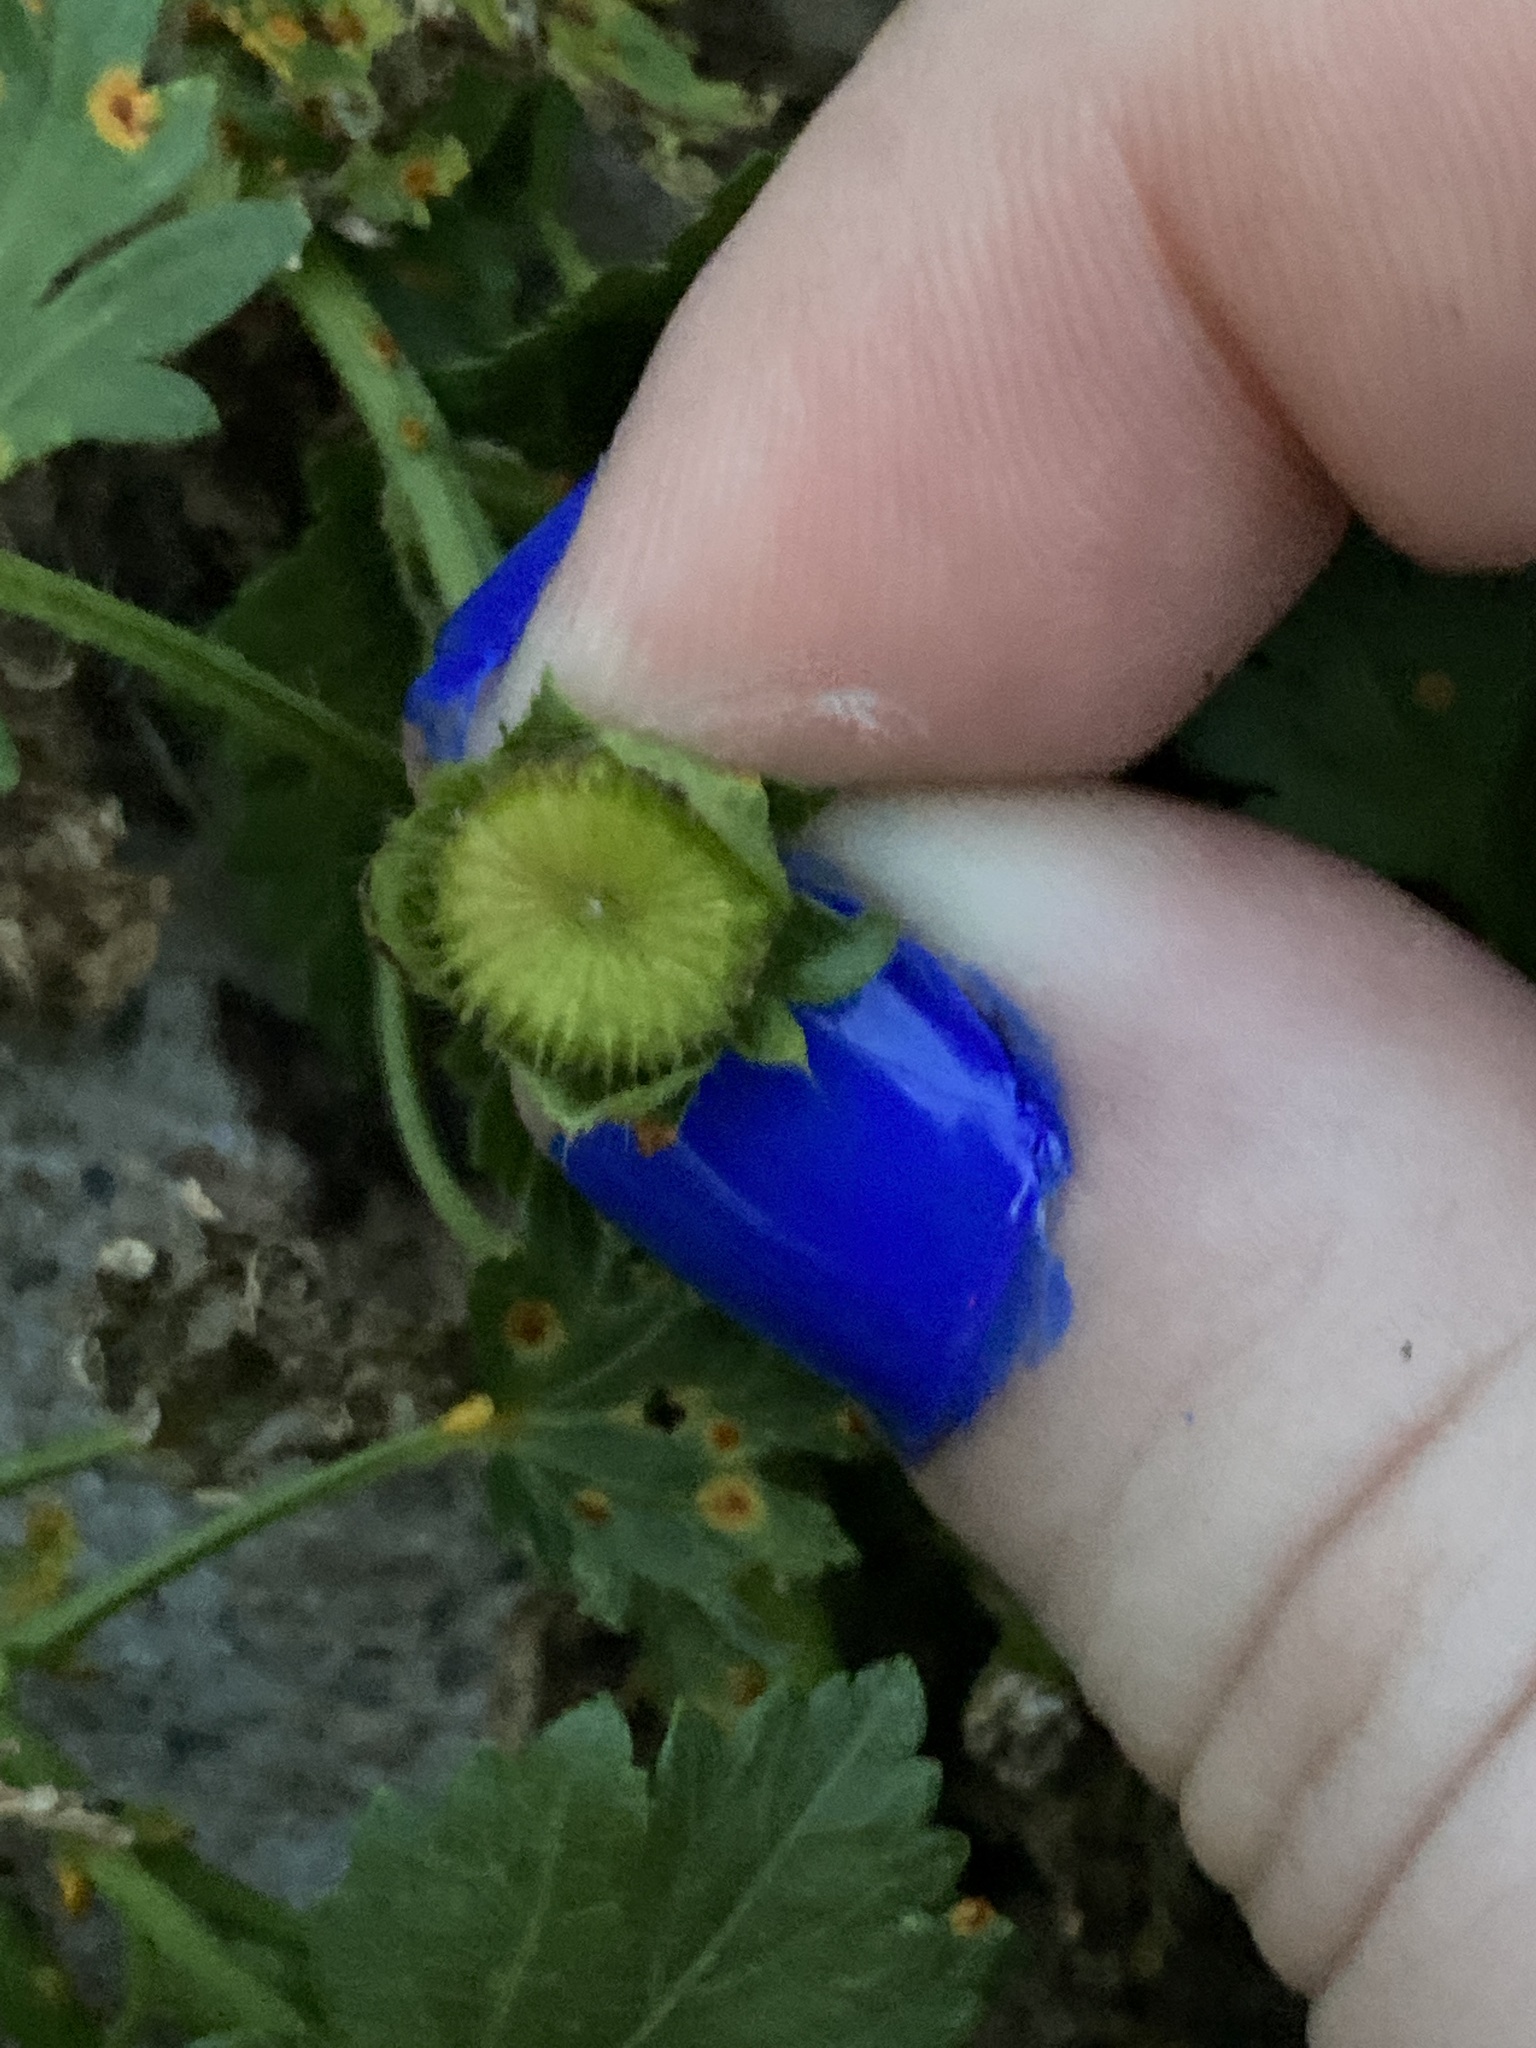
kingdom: Plantae
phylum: Tracheophyta
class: Magnoliopsida
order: Malvales
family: Malvaceae
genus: Modiola
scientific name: Modiola caroliniana
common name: Carolina bristlemallow
